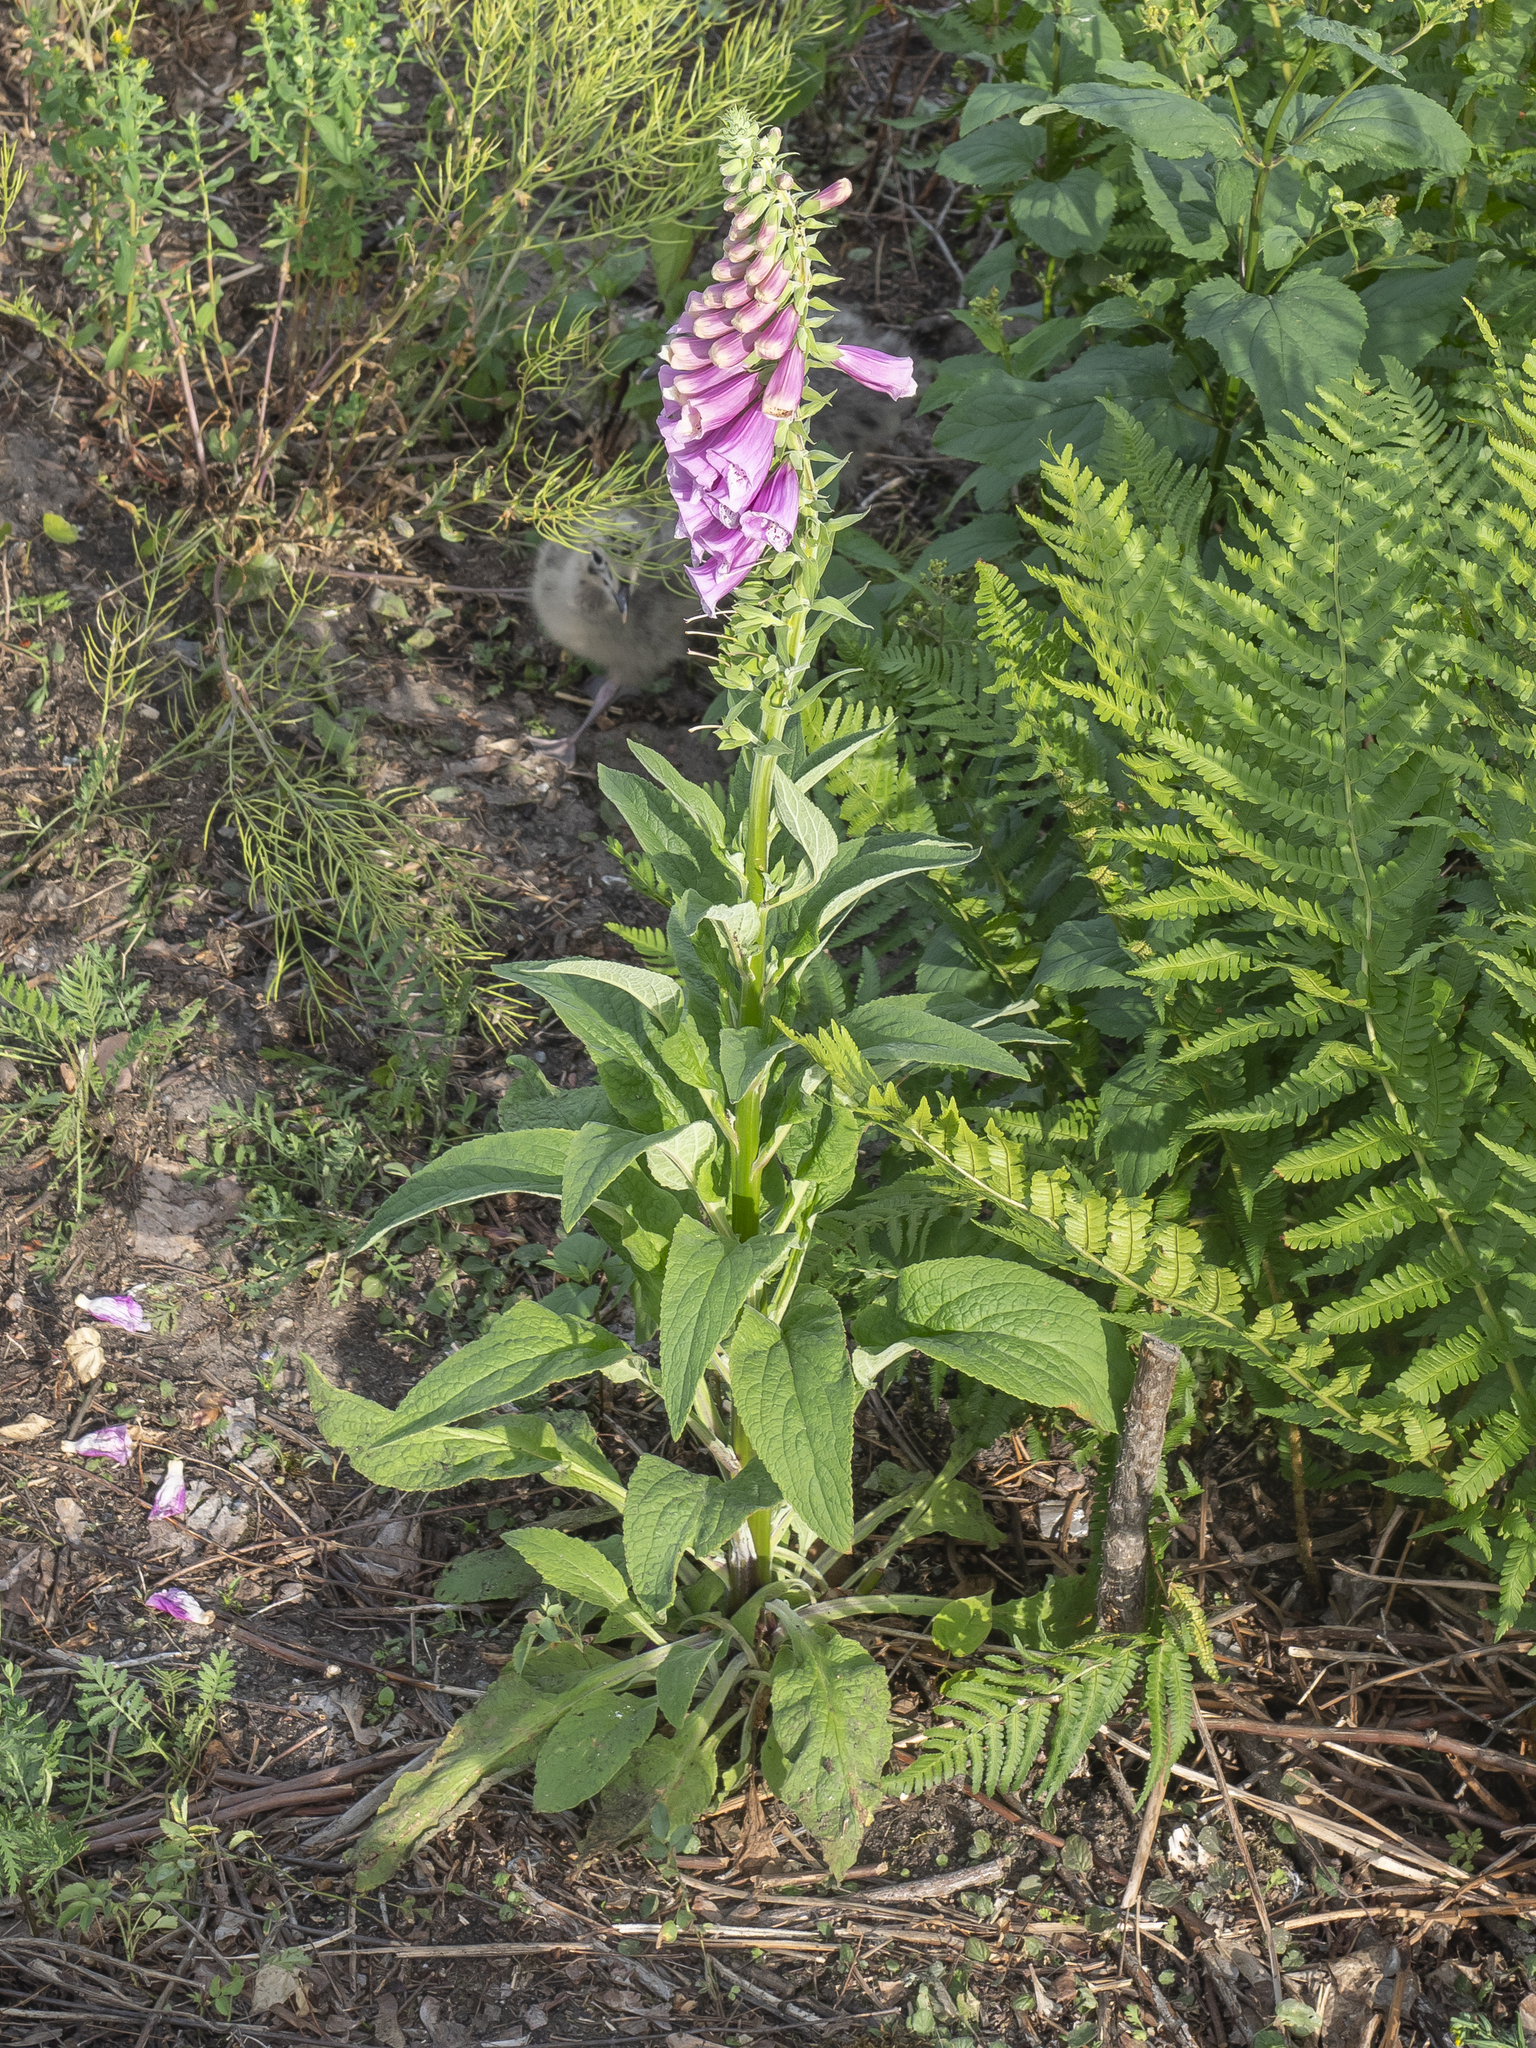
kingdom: Plantae
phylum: Tracheophyta
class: Magnoliopsida
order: Lamiales
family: Plantaginaceae
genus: Digitalis
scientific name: Digitalis purpurea
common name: Foxglove
